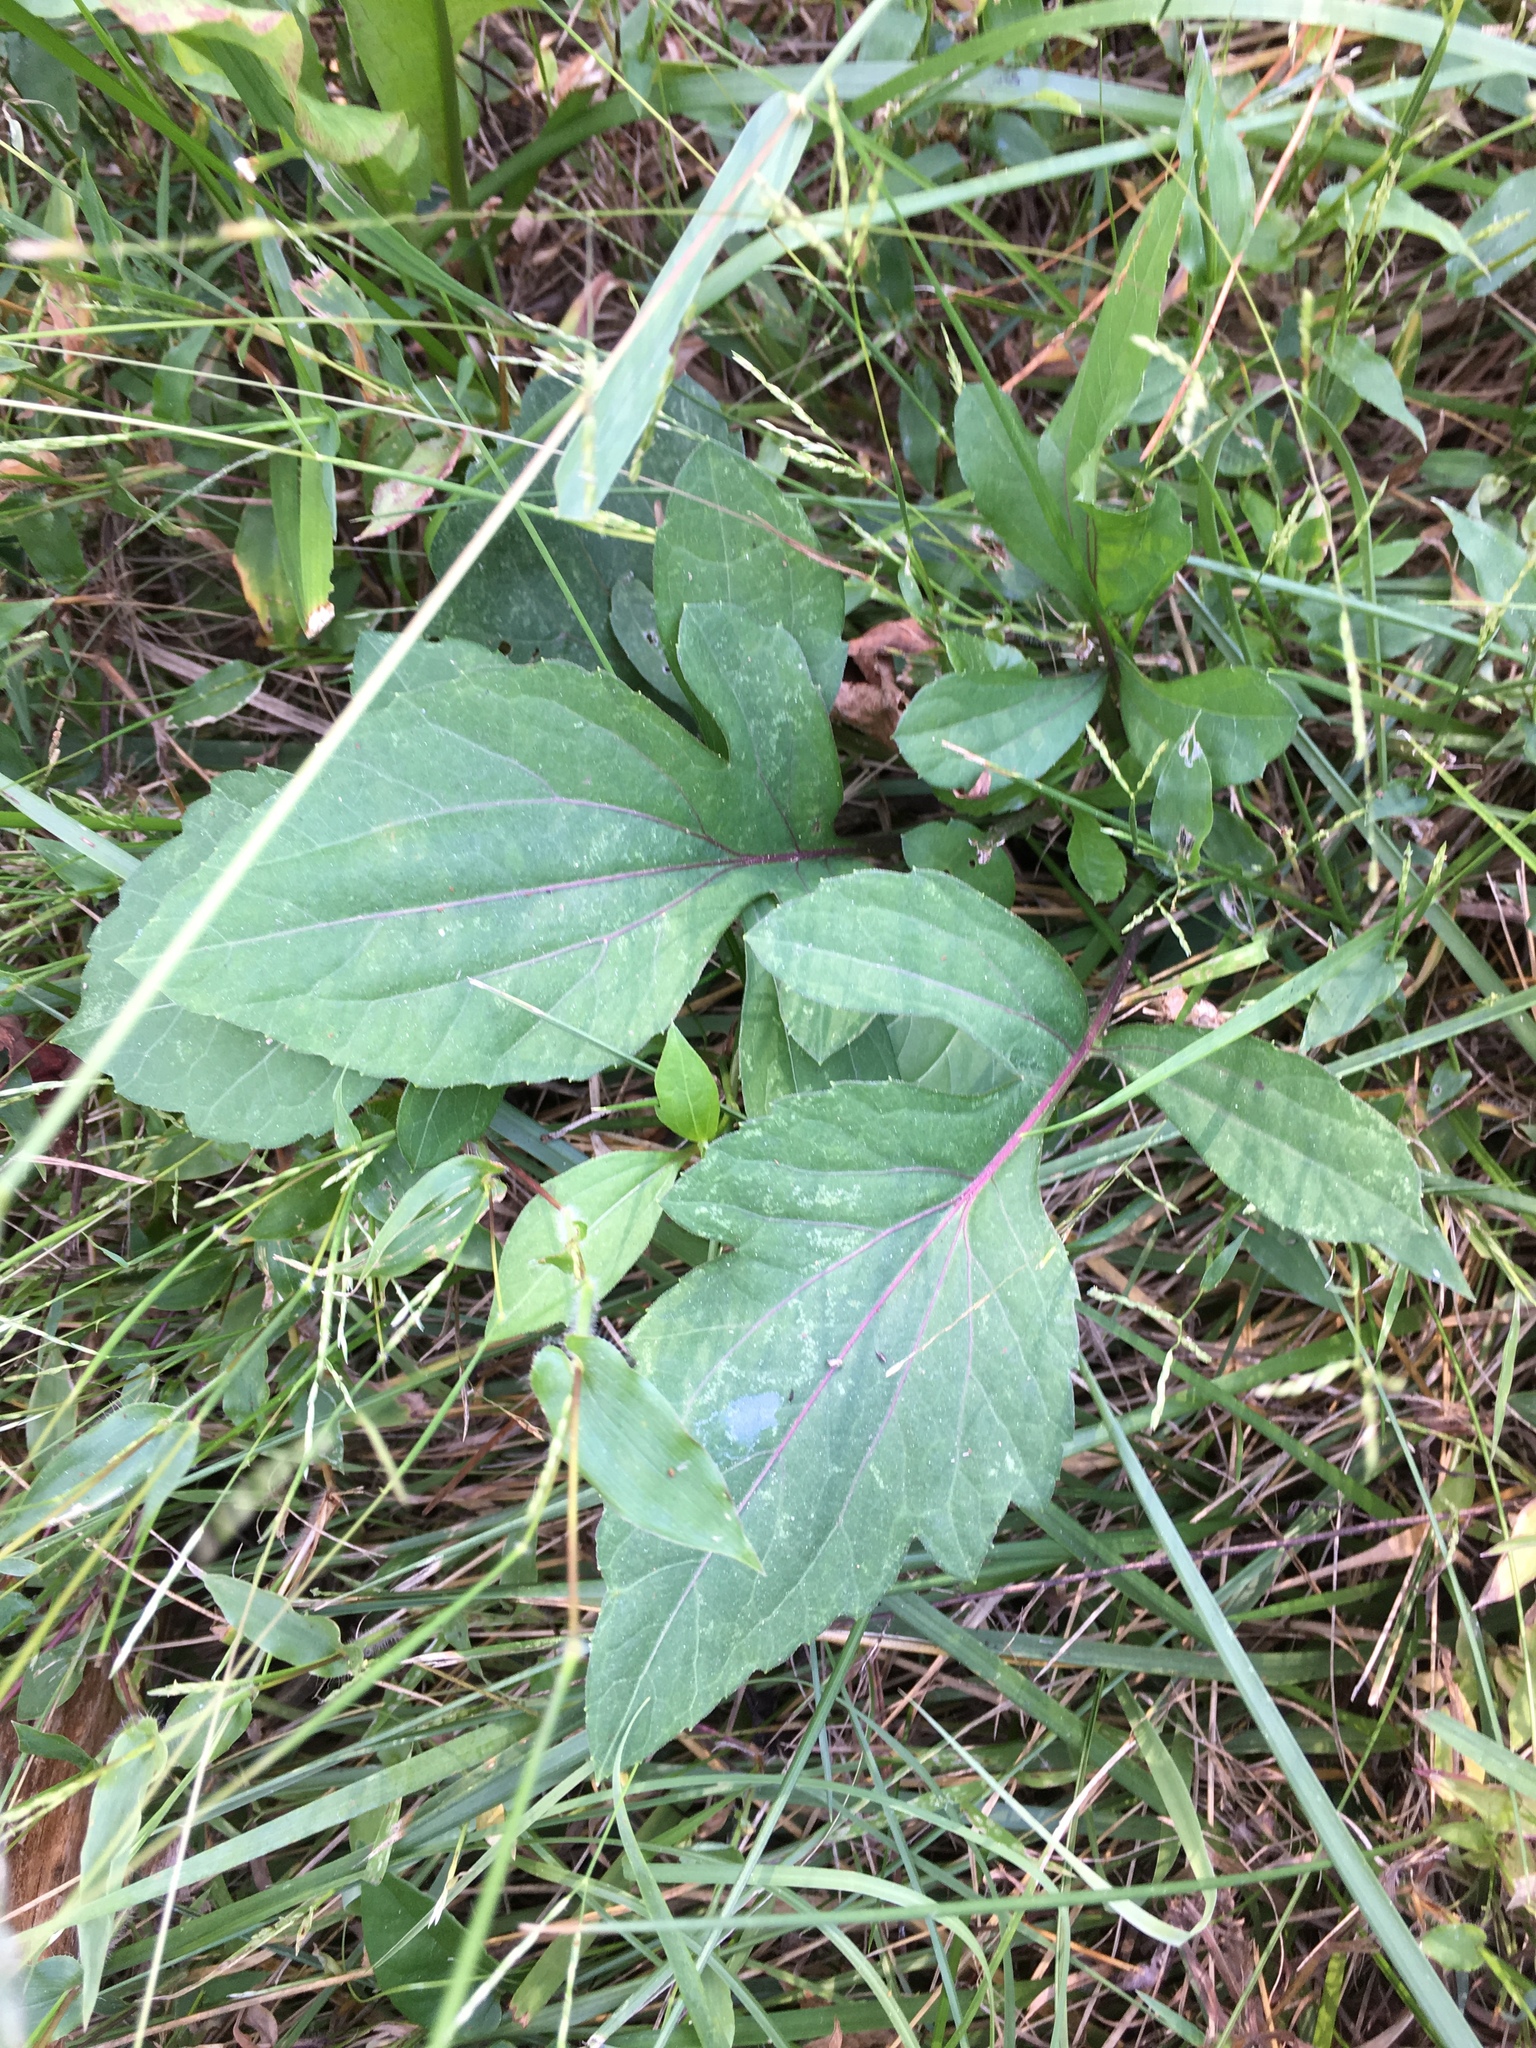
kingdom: Plantae
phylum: Tracheophyta
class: Magnoliopsida
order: Asterales
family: Asteraceae
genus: Rudbeckia
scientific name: Rudbeckia laciniata
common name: Coneflower
